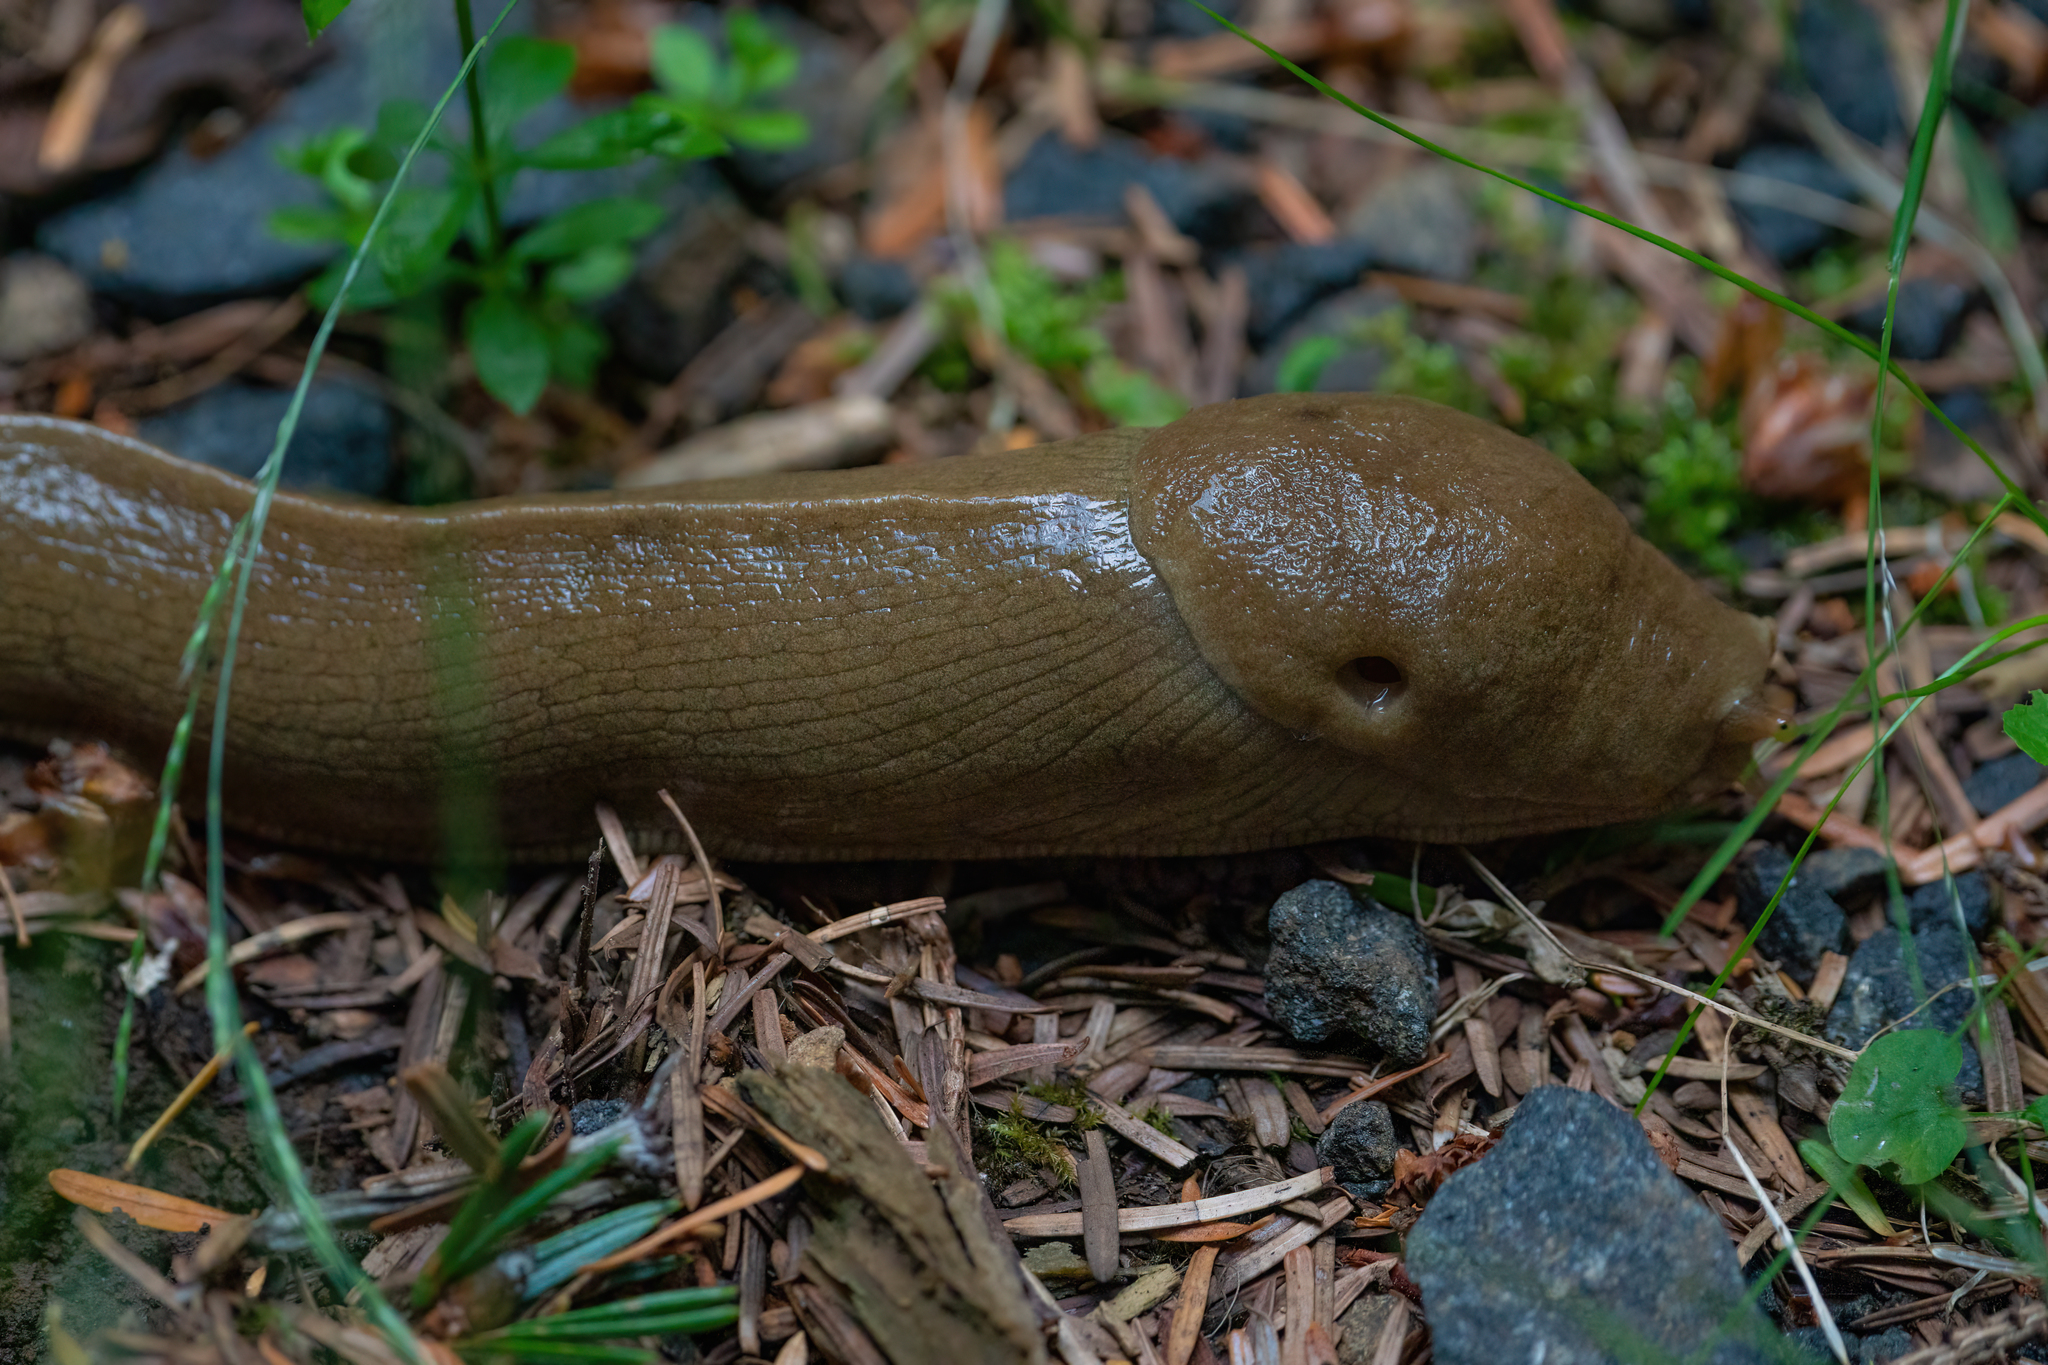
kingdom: Animalia
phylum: Mollusca
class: Gastropoda
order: Stylommatophora
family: Ariolimacidae
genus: Ariolimax
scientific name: Ariolimax columbianus
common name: Pacific banana slug
